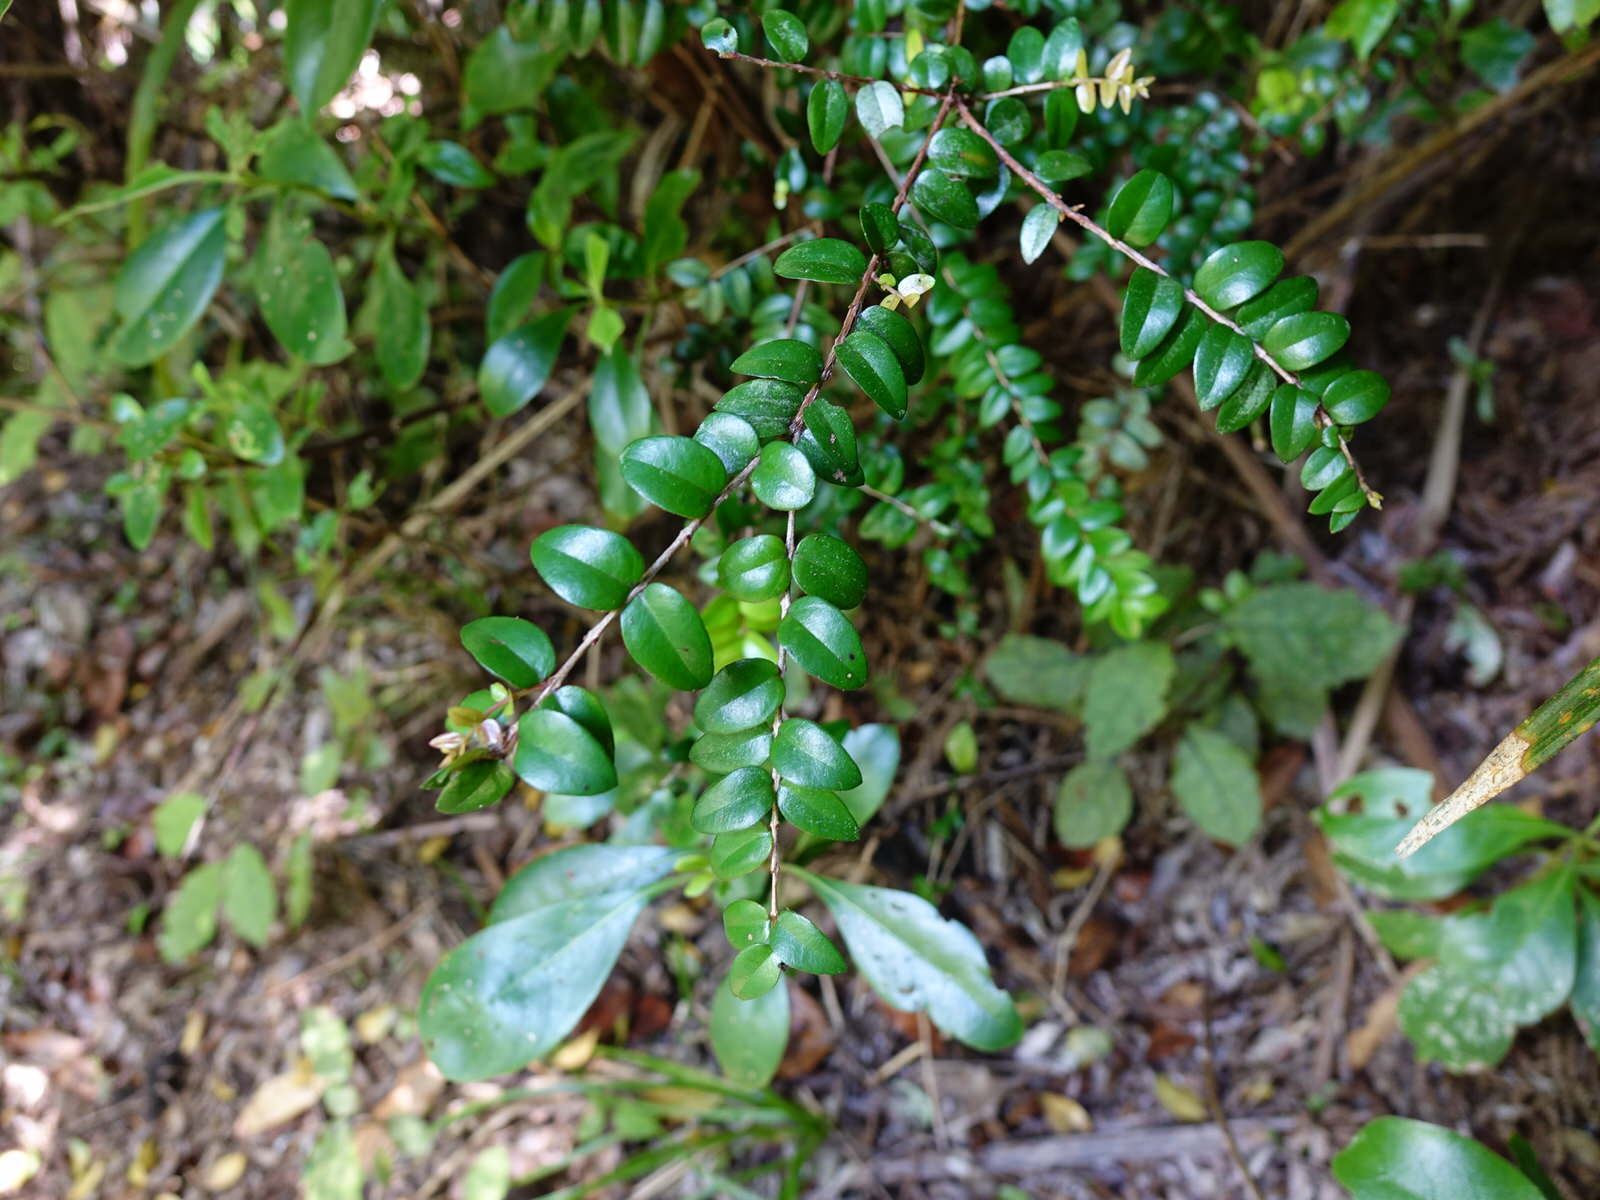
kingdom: Plantae
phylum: Tracheophyta
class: Magnoliopsida
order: Myrtales
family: Myrtaceae
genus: Metrosideros
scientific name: Metrosideros diffusa
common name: Small ratavine
